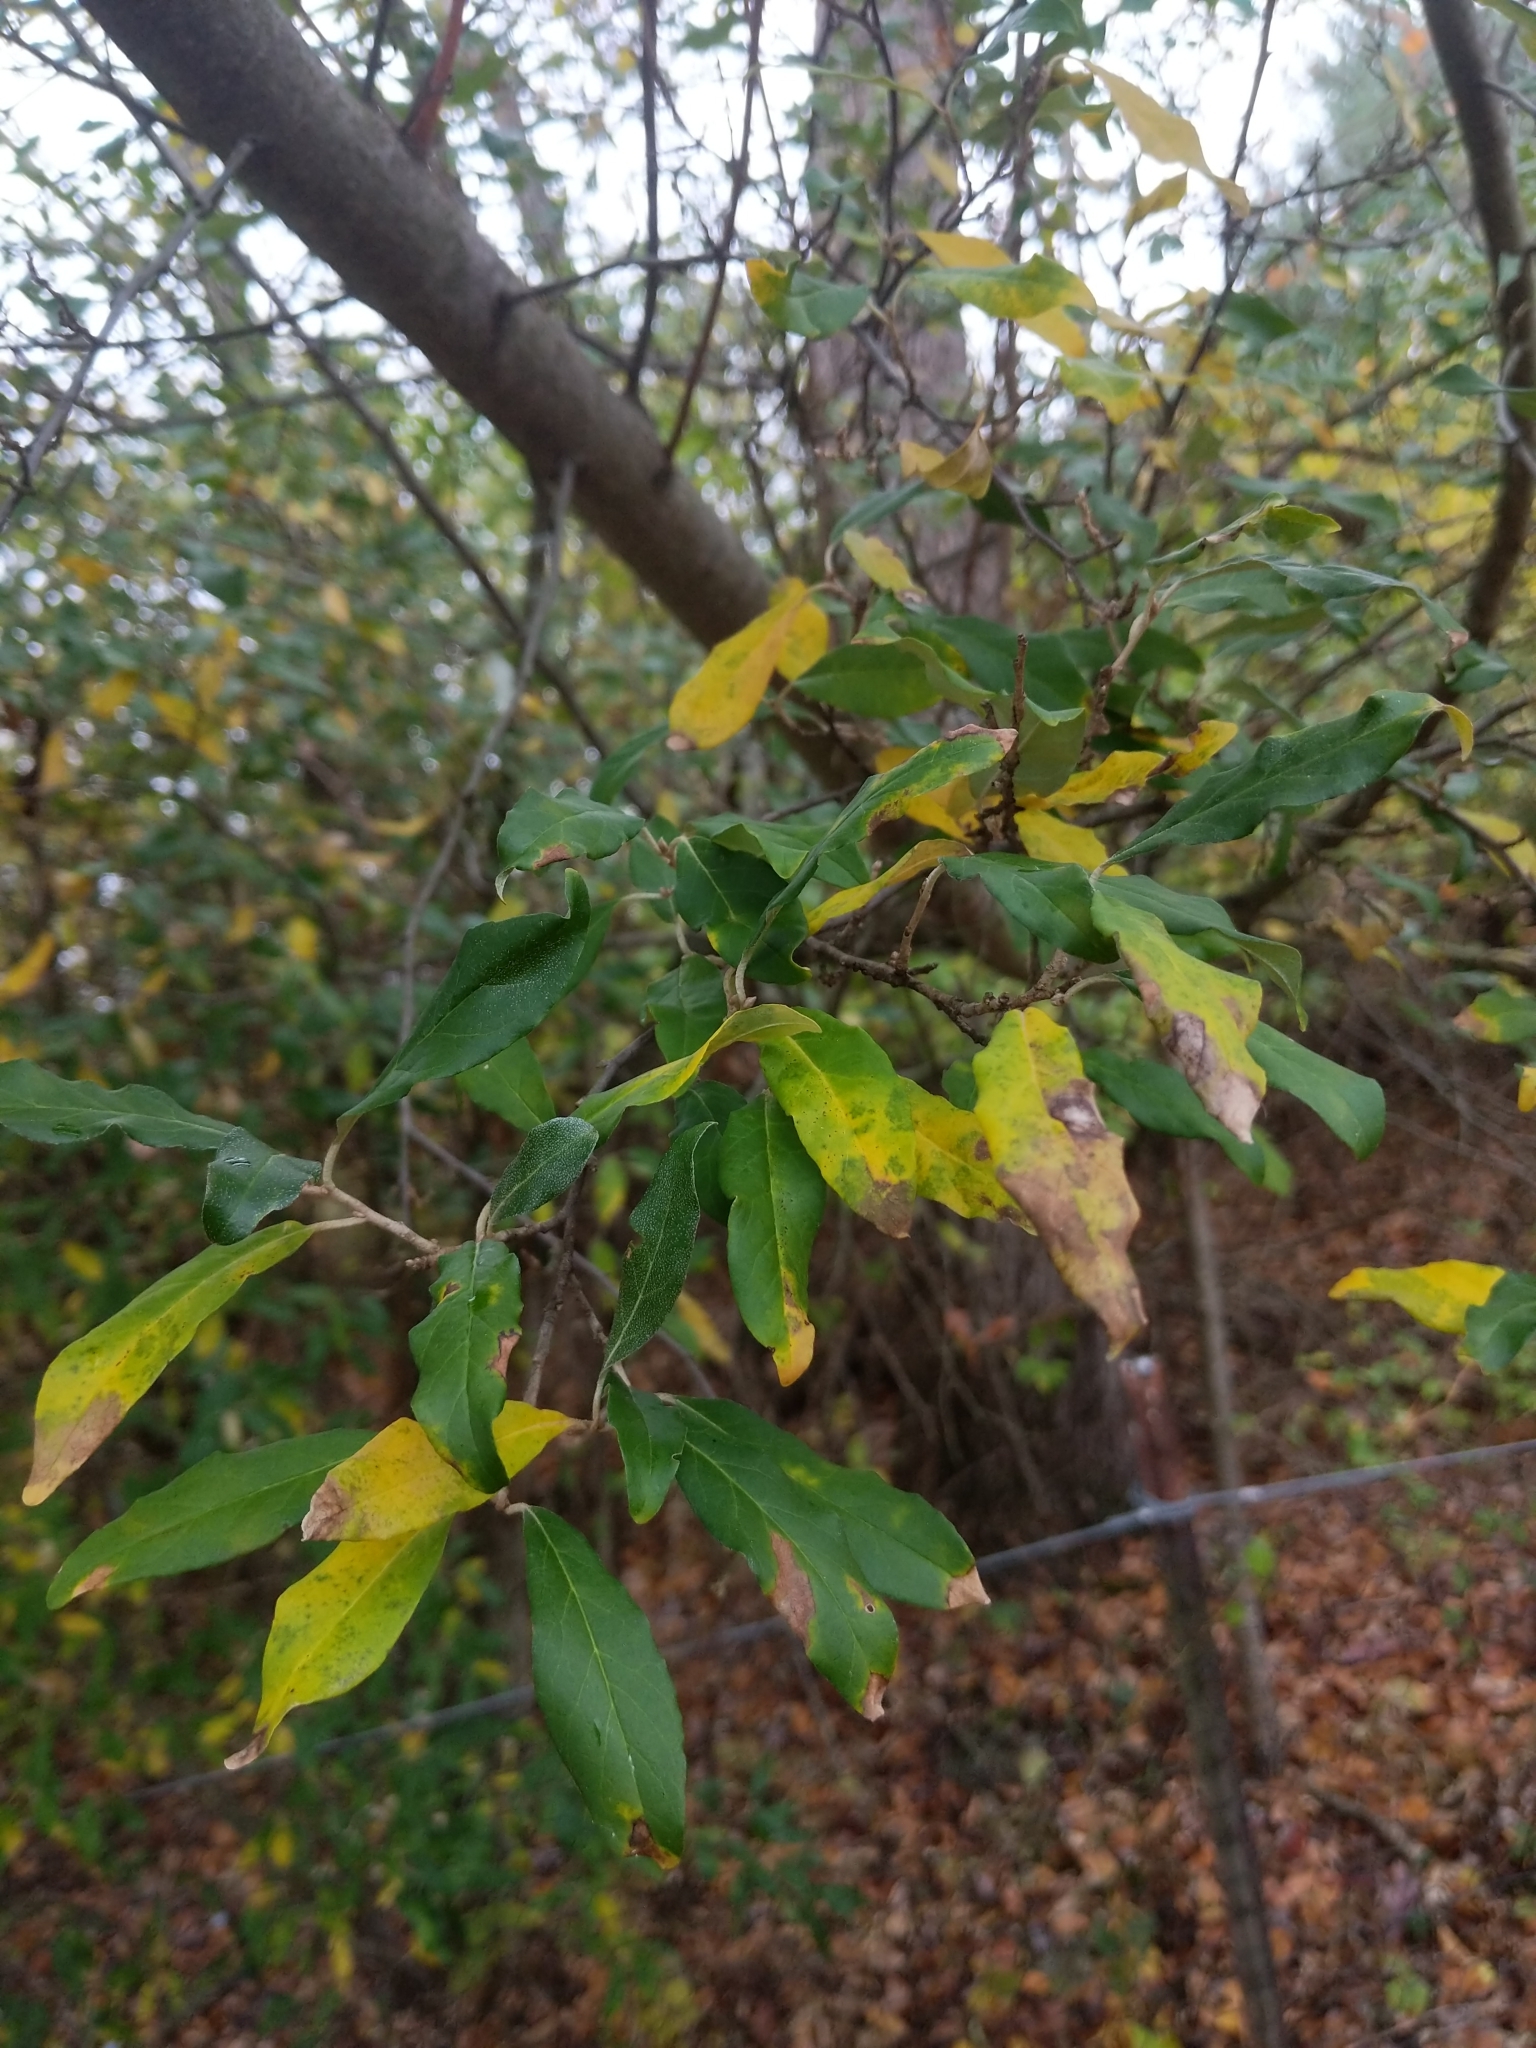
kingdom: Plantae
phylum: Tracheophyta
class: Magnoliopsida
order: Rosales
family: Elaeagnaceae
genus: Elaeagnus
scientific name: Elaeagnus umbellata
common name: Autumn olive
